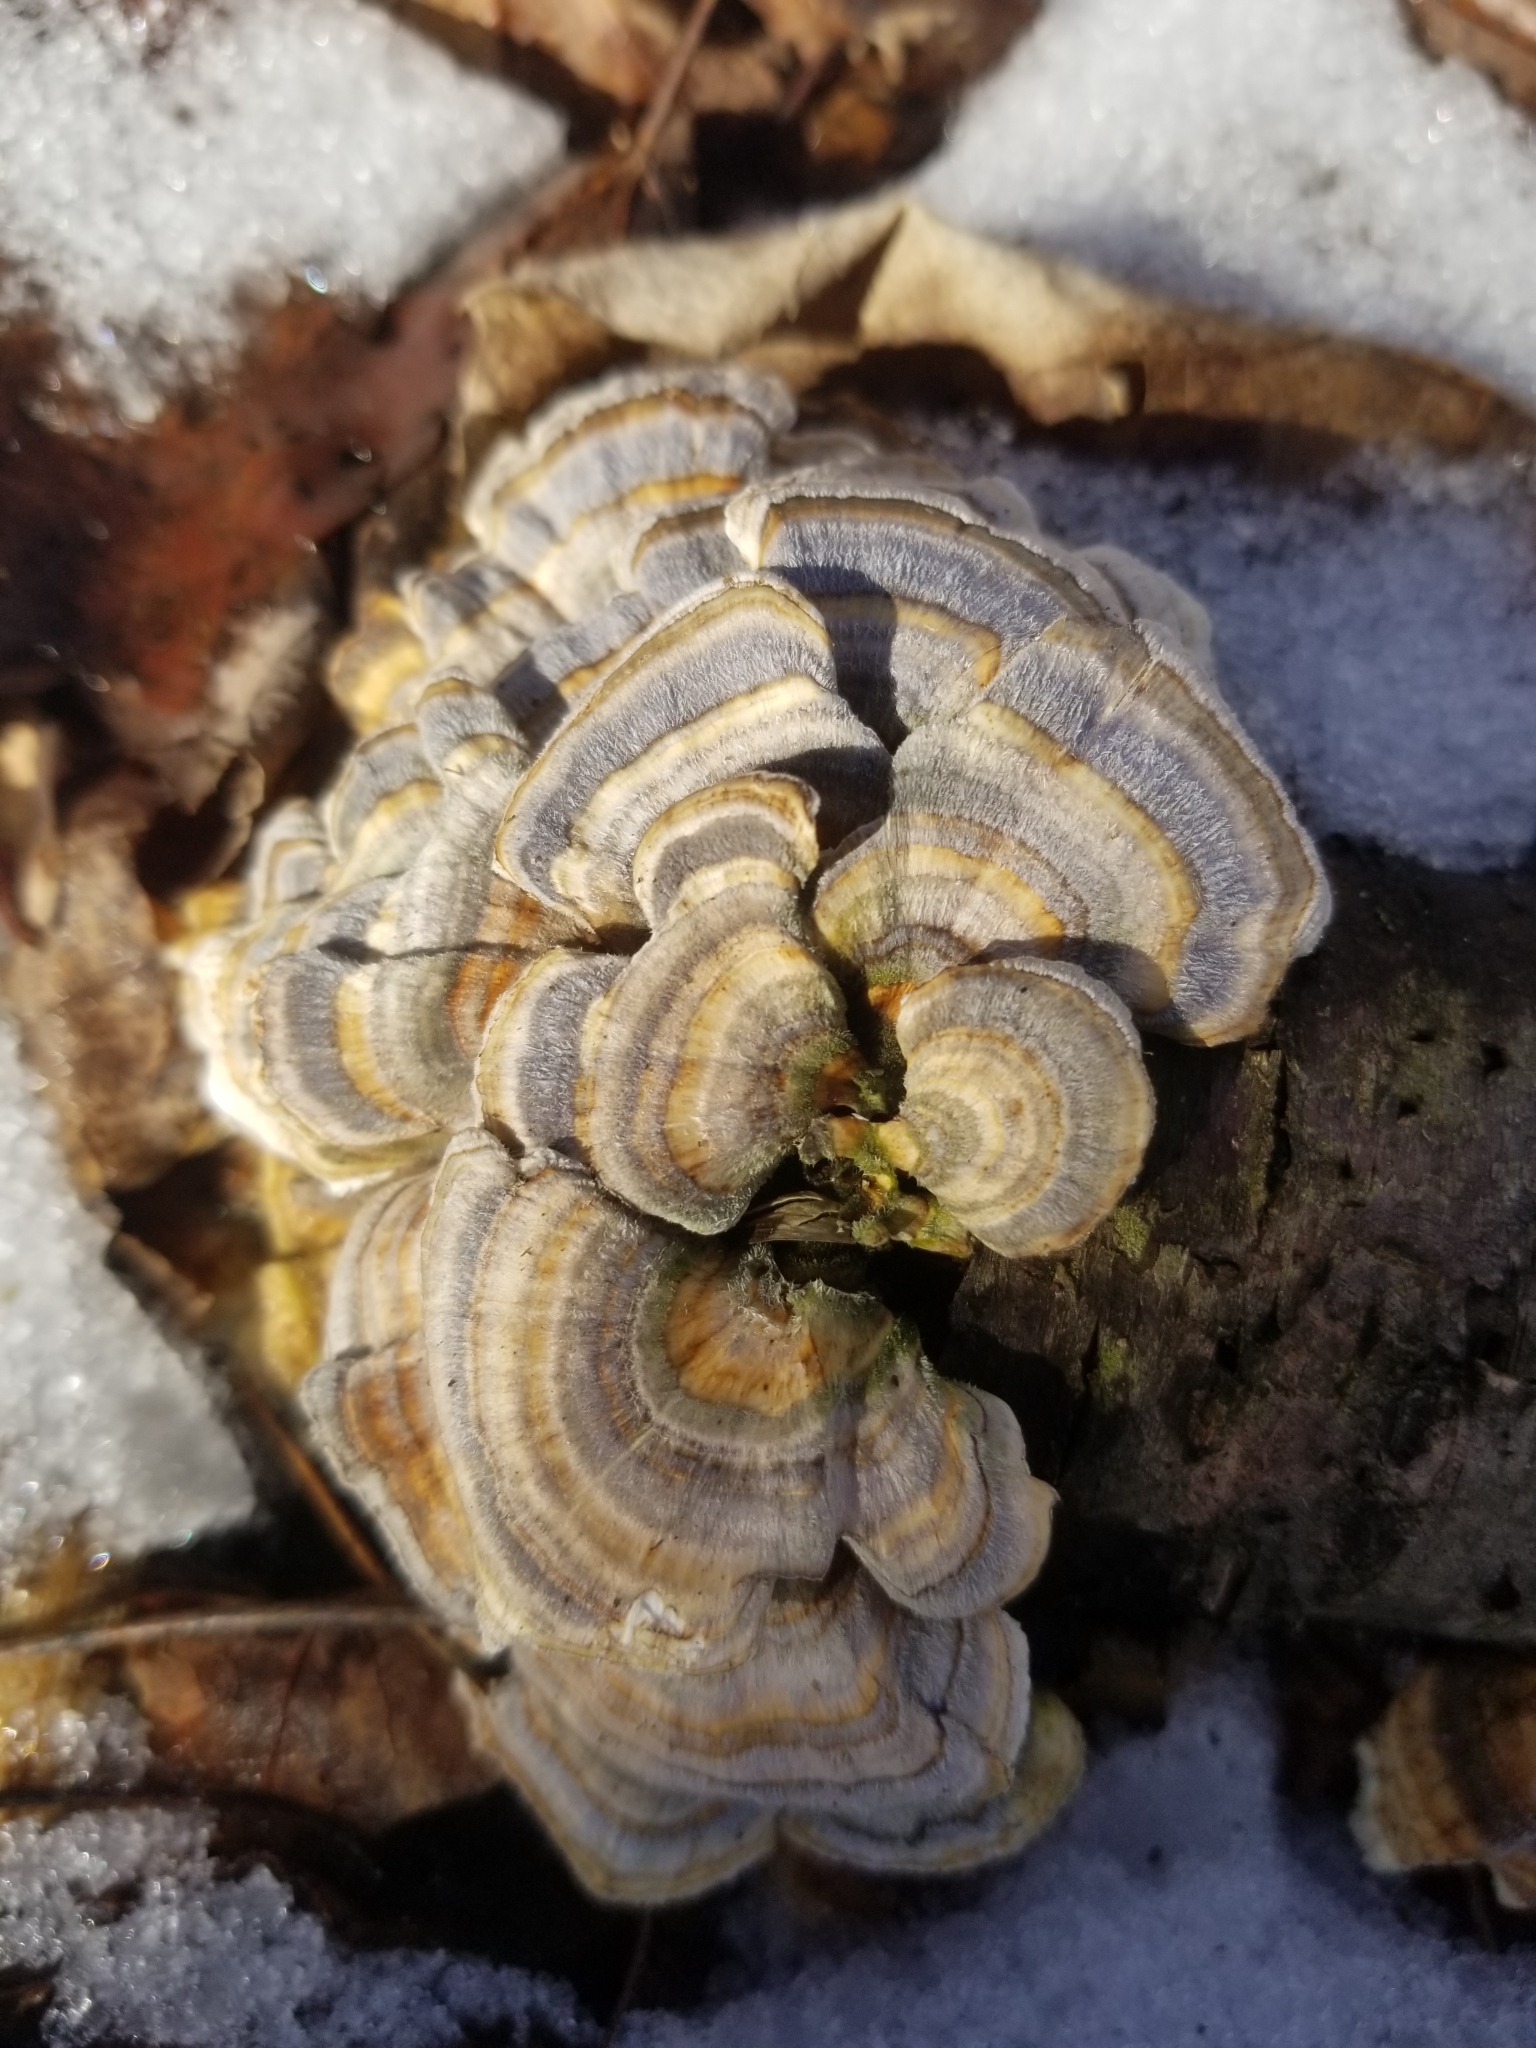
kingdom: Fungi
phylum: Basidiomycota
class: Agaricomycetes
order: Polyporales
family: Polyporaceae
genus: Trametes
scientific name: Trametes versicolor
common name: Turkeytail
